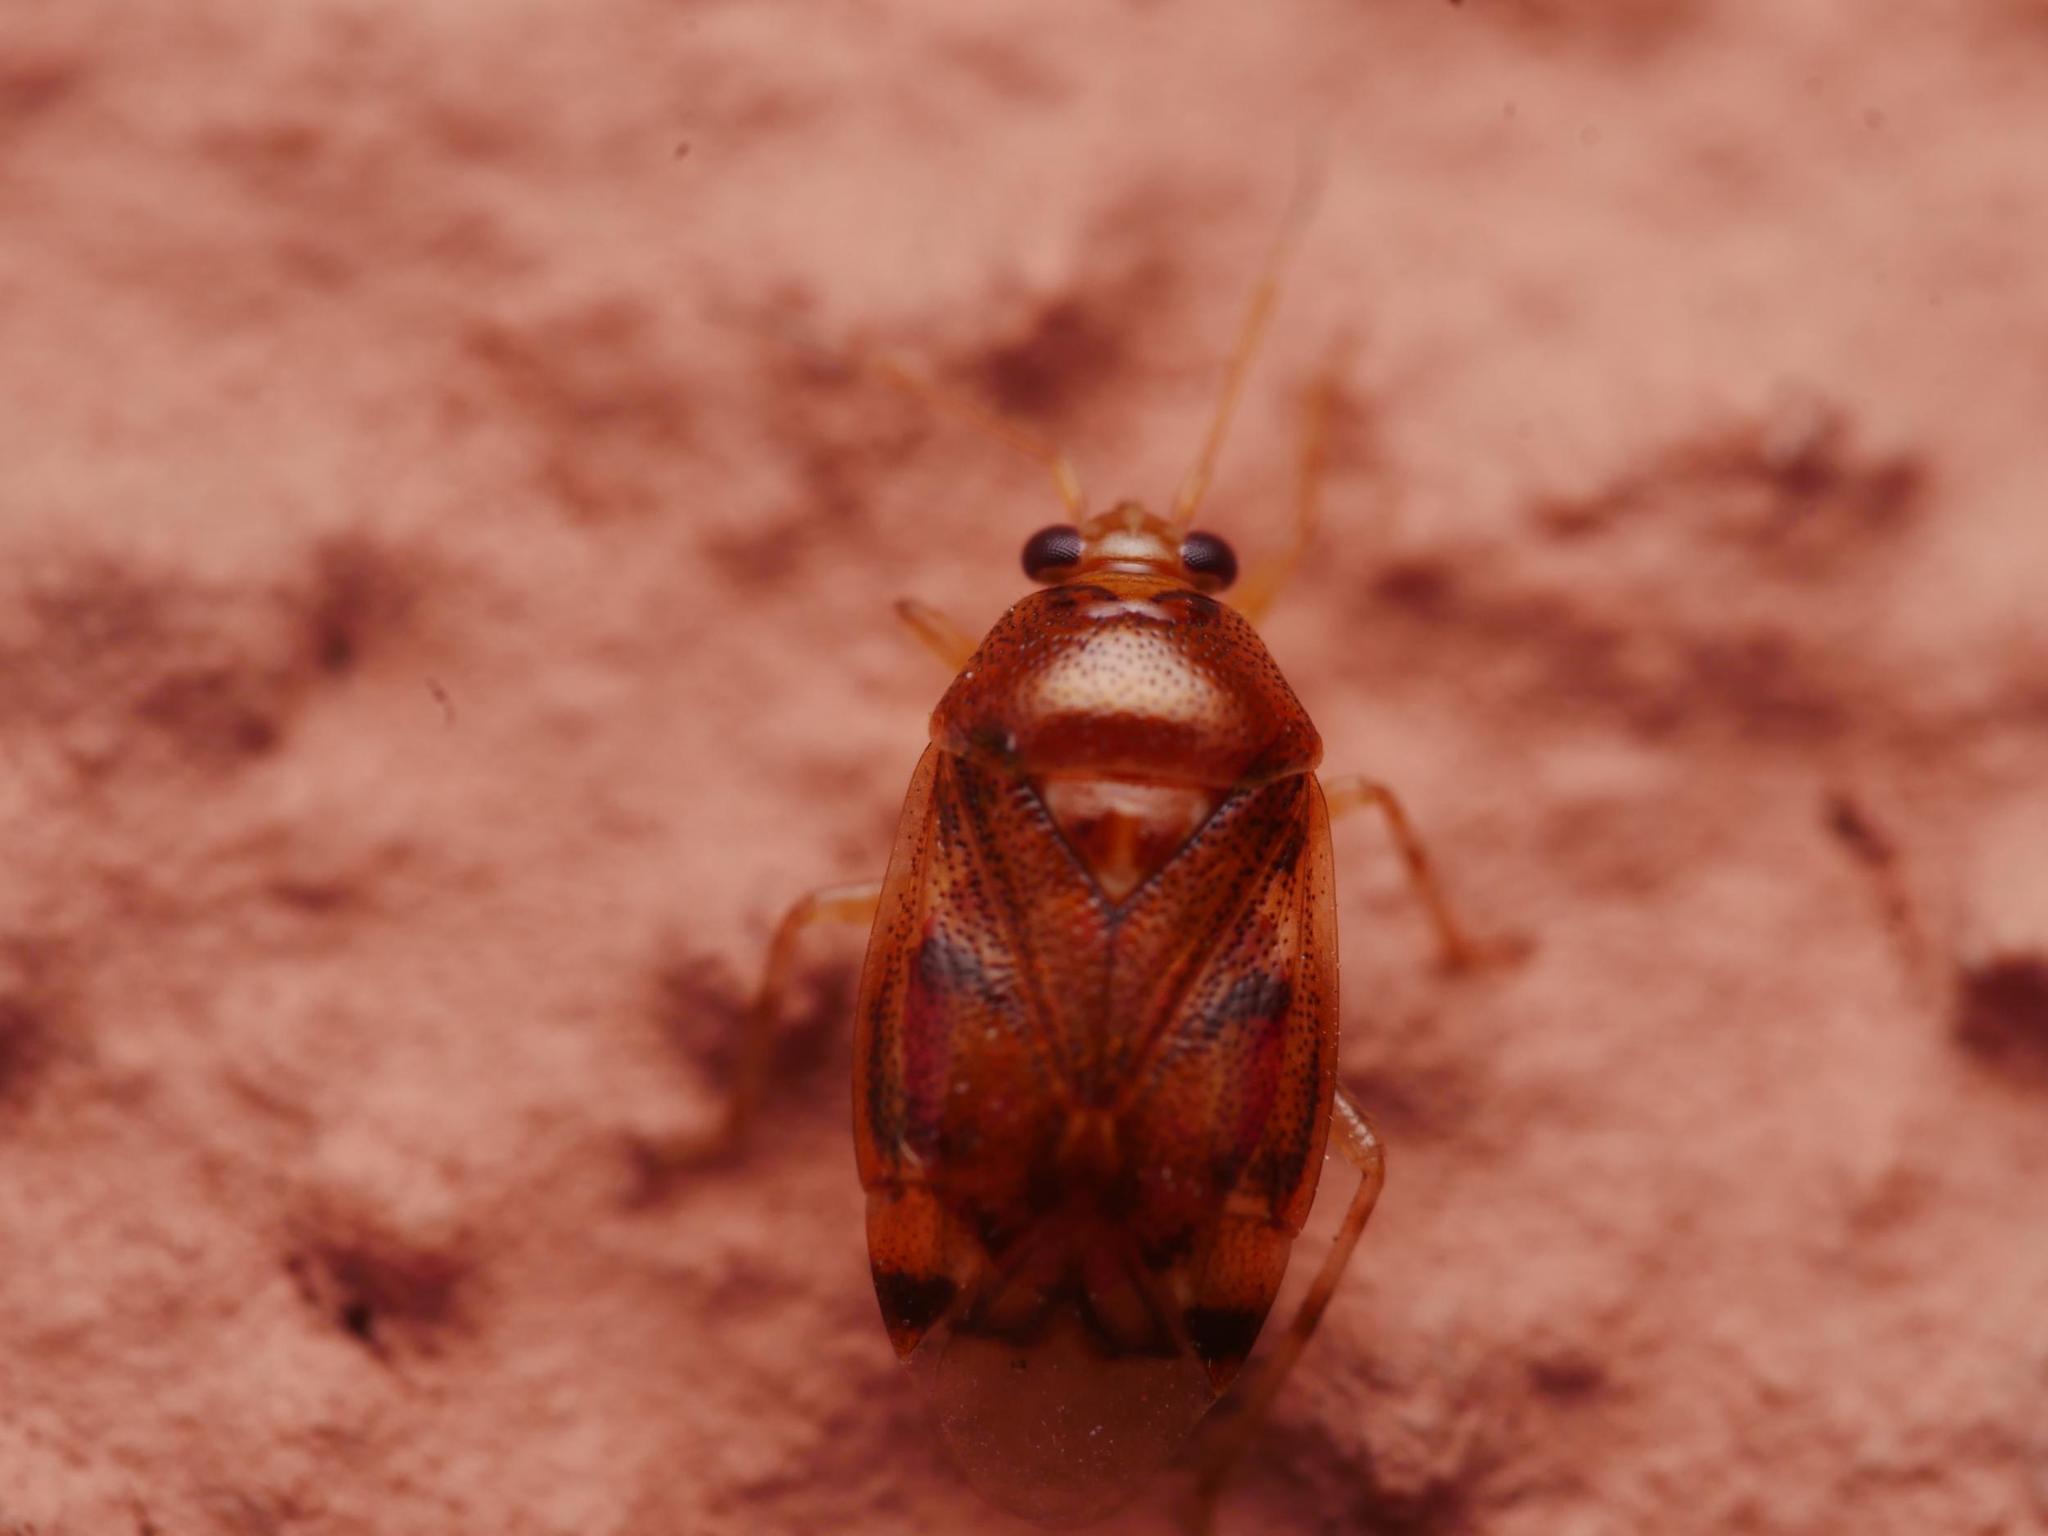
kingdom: Animalia
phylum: Arthropoda
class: Insecta
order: Hemiptera
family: Miridae
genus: Deraeocoris
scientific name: Deraeocoris lutescens
